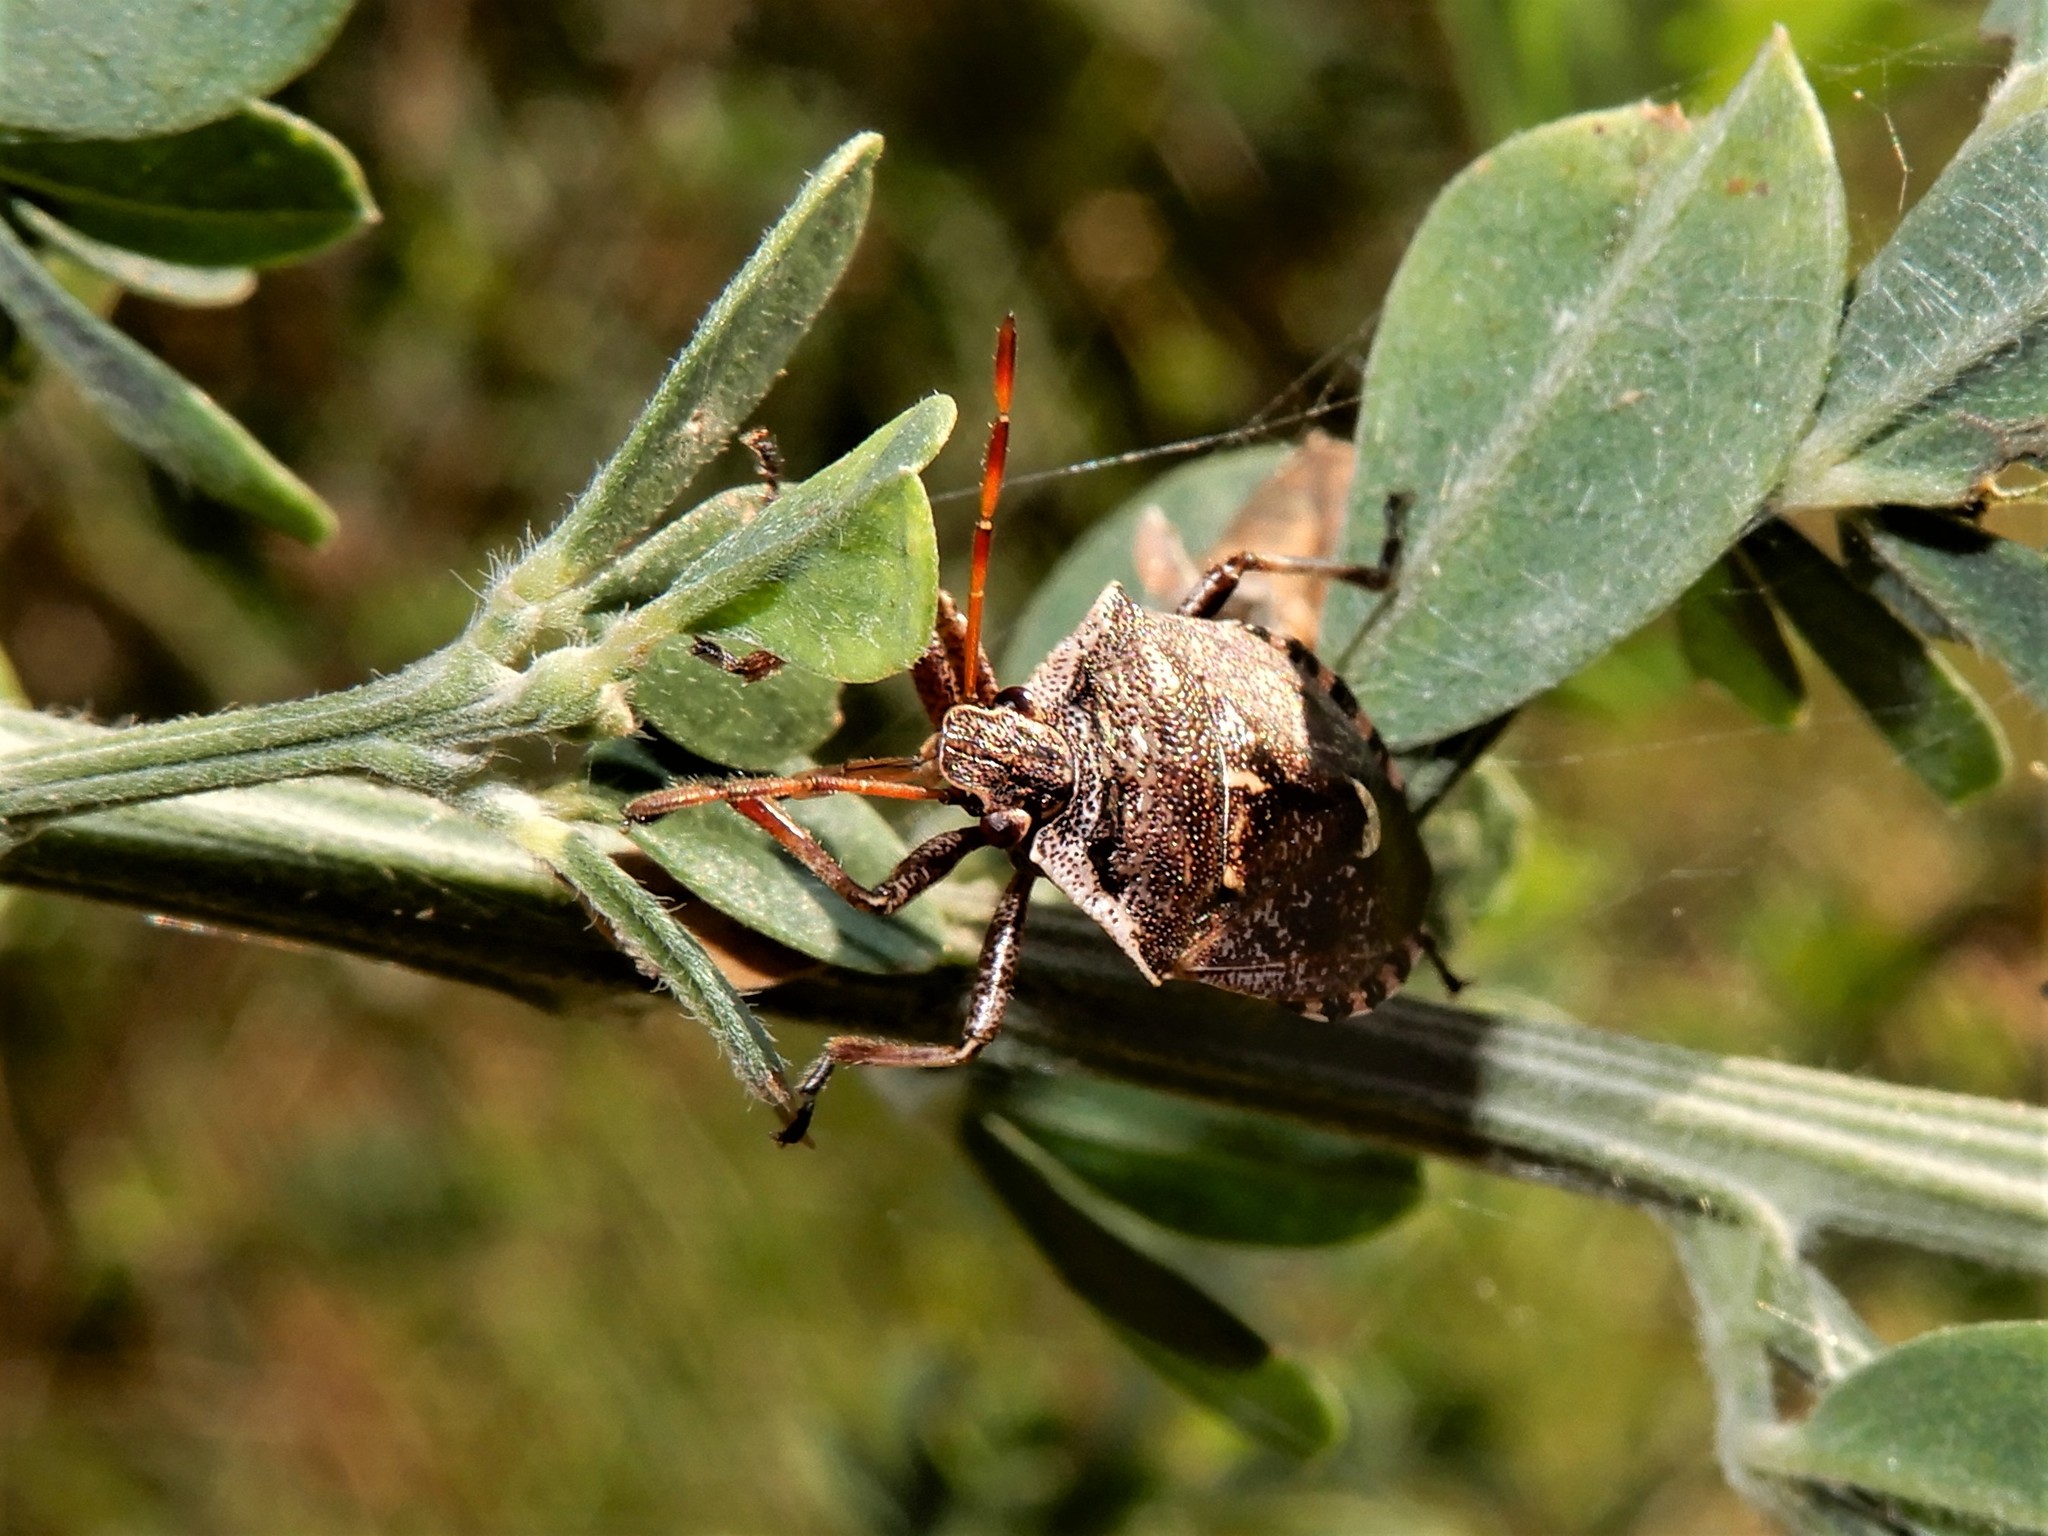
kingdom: Animalia
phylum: Arthropoda
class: Insecta
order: Hemiptera
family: Pentatomidae
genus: Cermatulus
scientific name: Cermatulus nasalis
